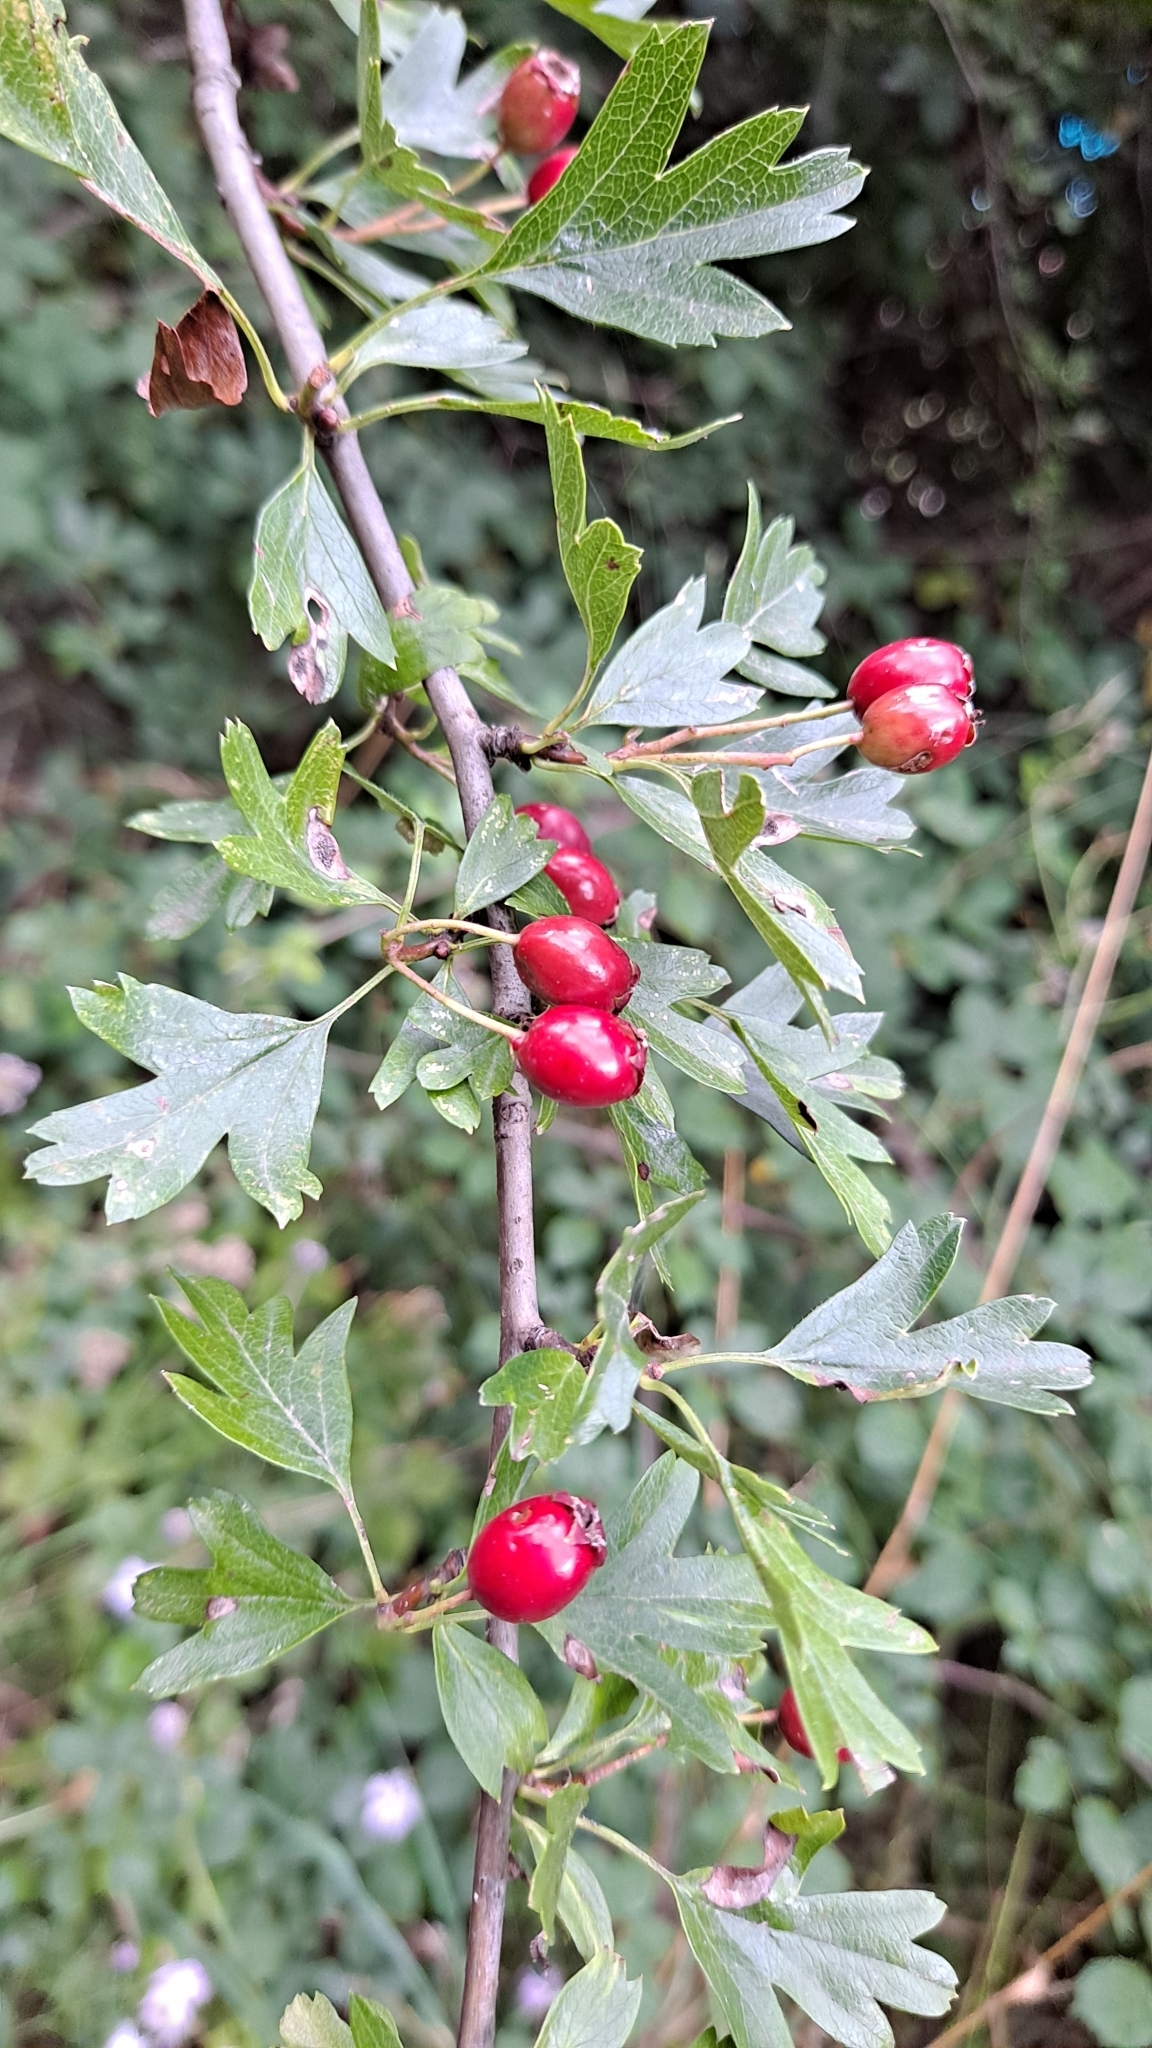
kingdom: Plantae
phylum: Tracheophyta
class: Magnoliopsida
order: Rosales
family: Rosaceae
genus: Crataegus
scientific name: Crataegus monogyna
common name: Hawthorn
